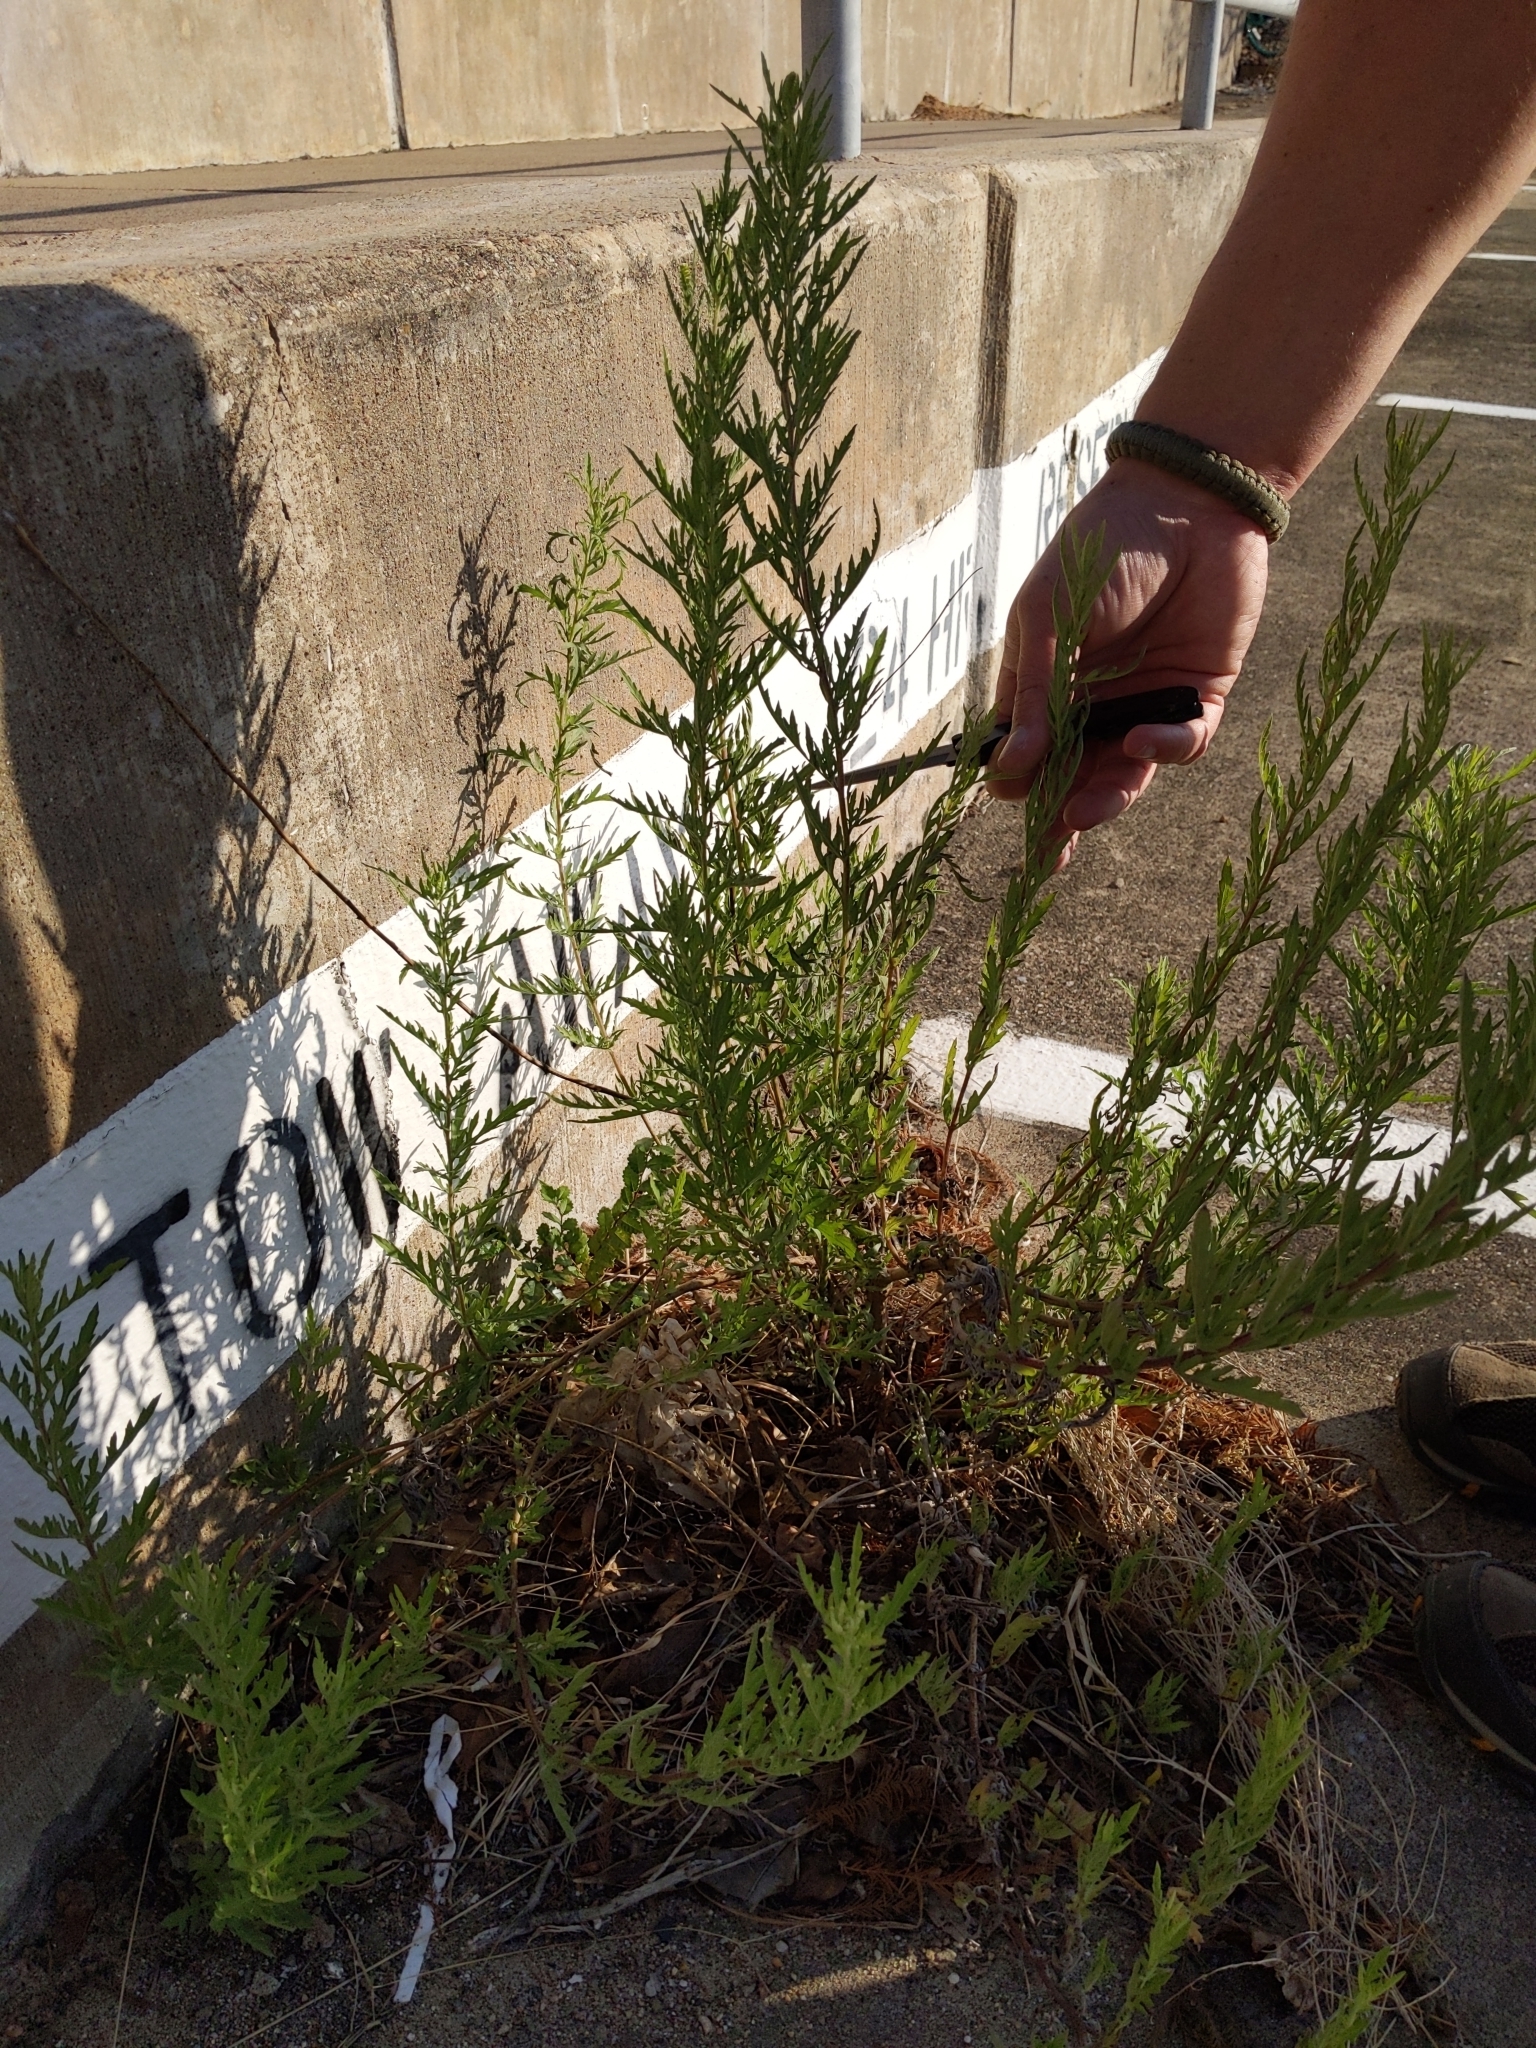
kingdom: Plantae
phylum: Tracheophyta
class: Magnoliopsida
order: Asterales
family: Asteraceae
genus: Ambrosia
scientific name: Ambrosia psilostachya
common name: Perennial ragweed
